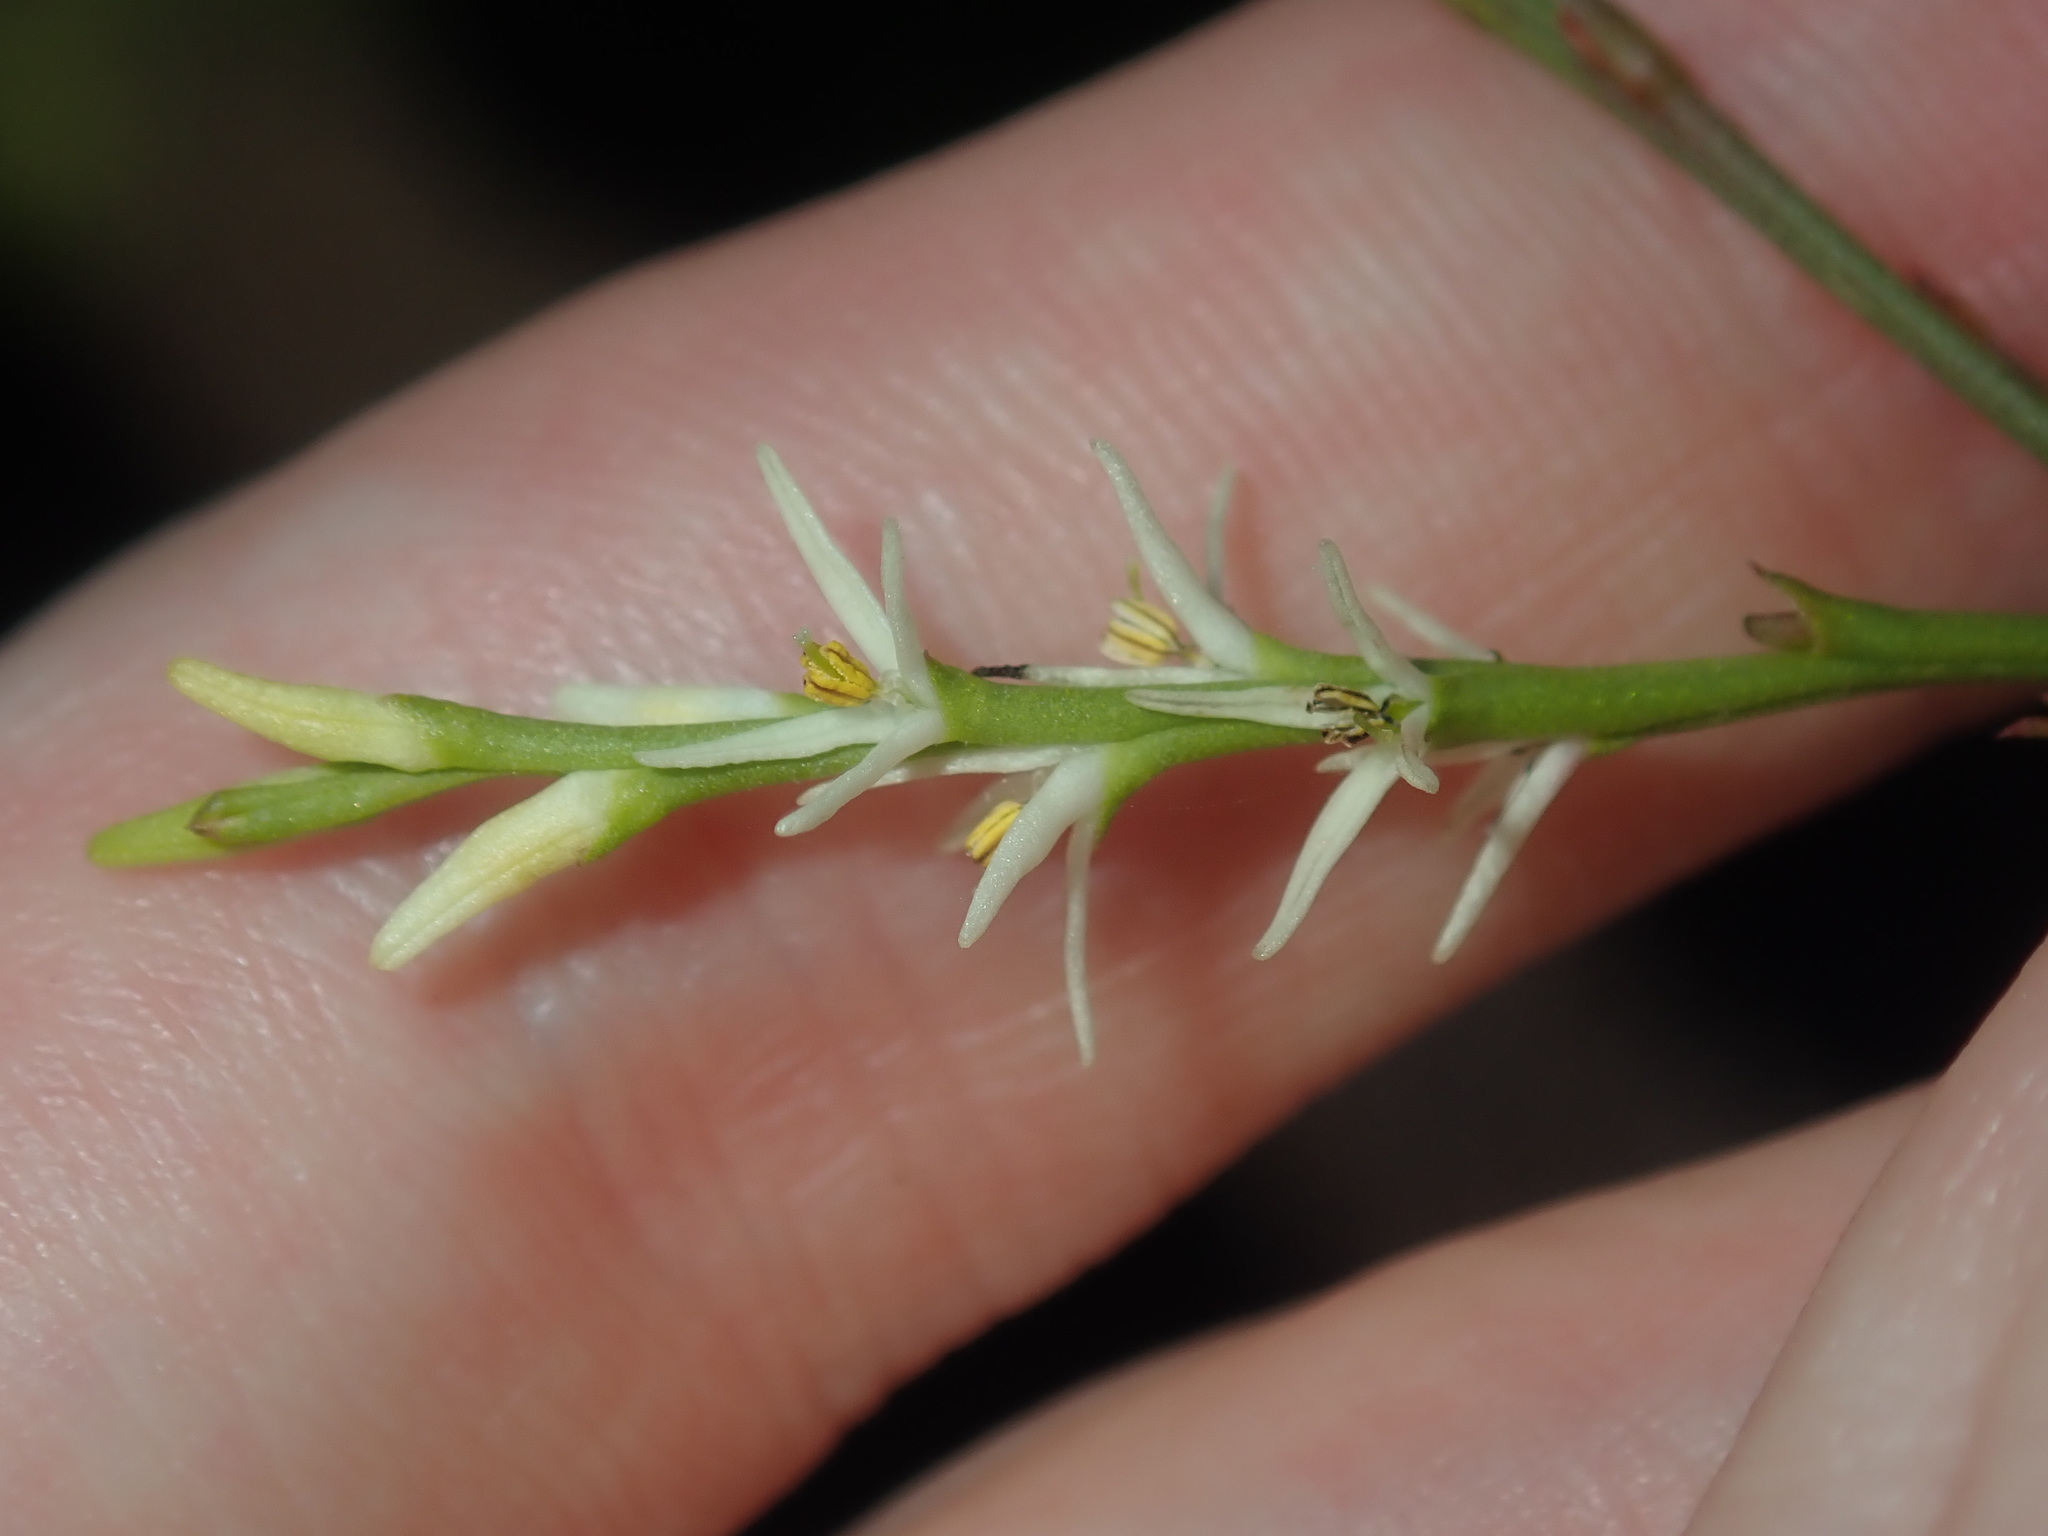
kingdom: Plantae
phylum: Tracheophyta
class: Magnoliopsida
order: Proteales
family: Proteaceae
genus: Symphionema
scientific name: Symphionema paludosum
